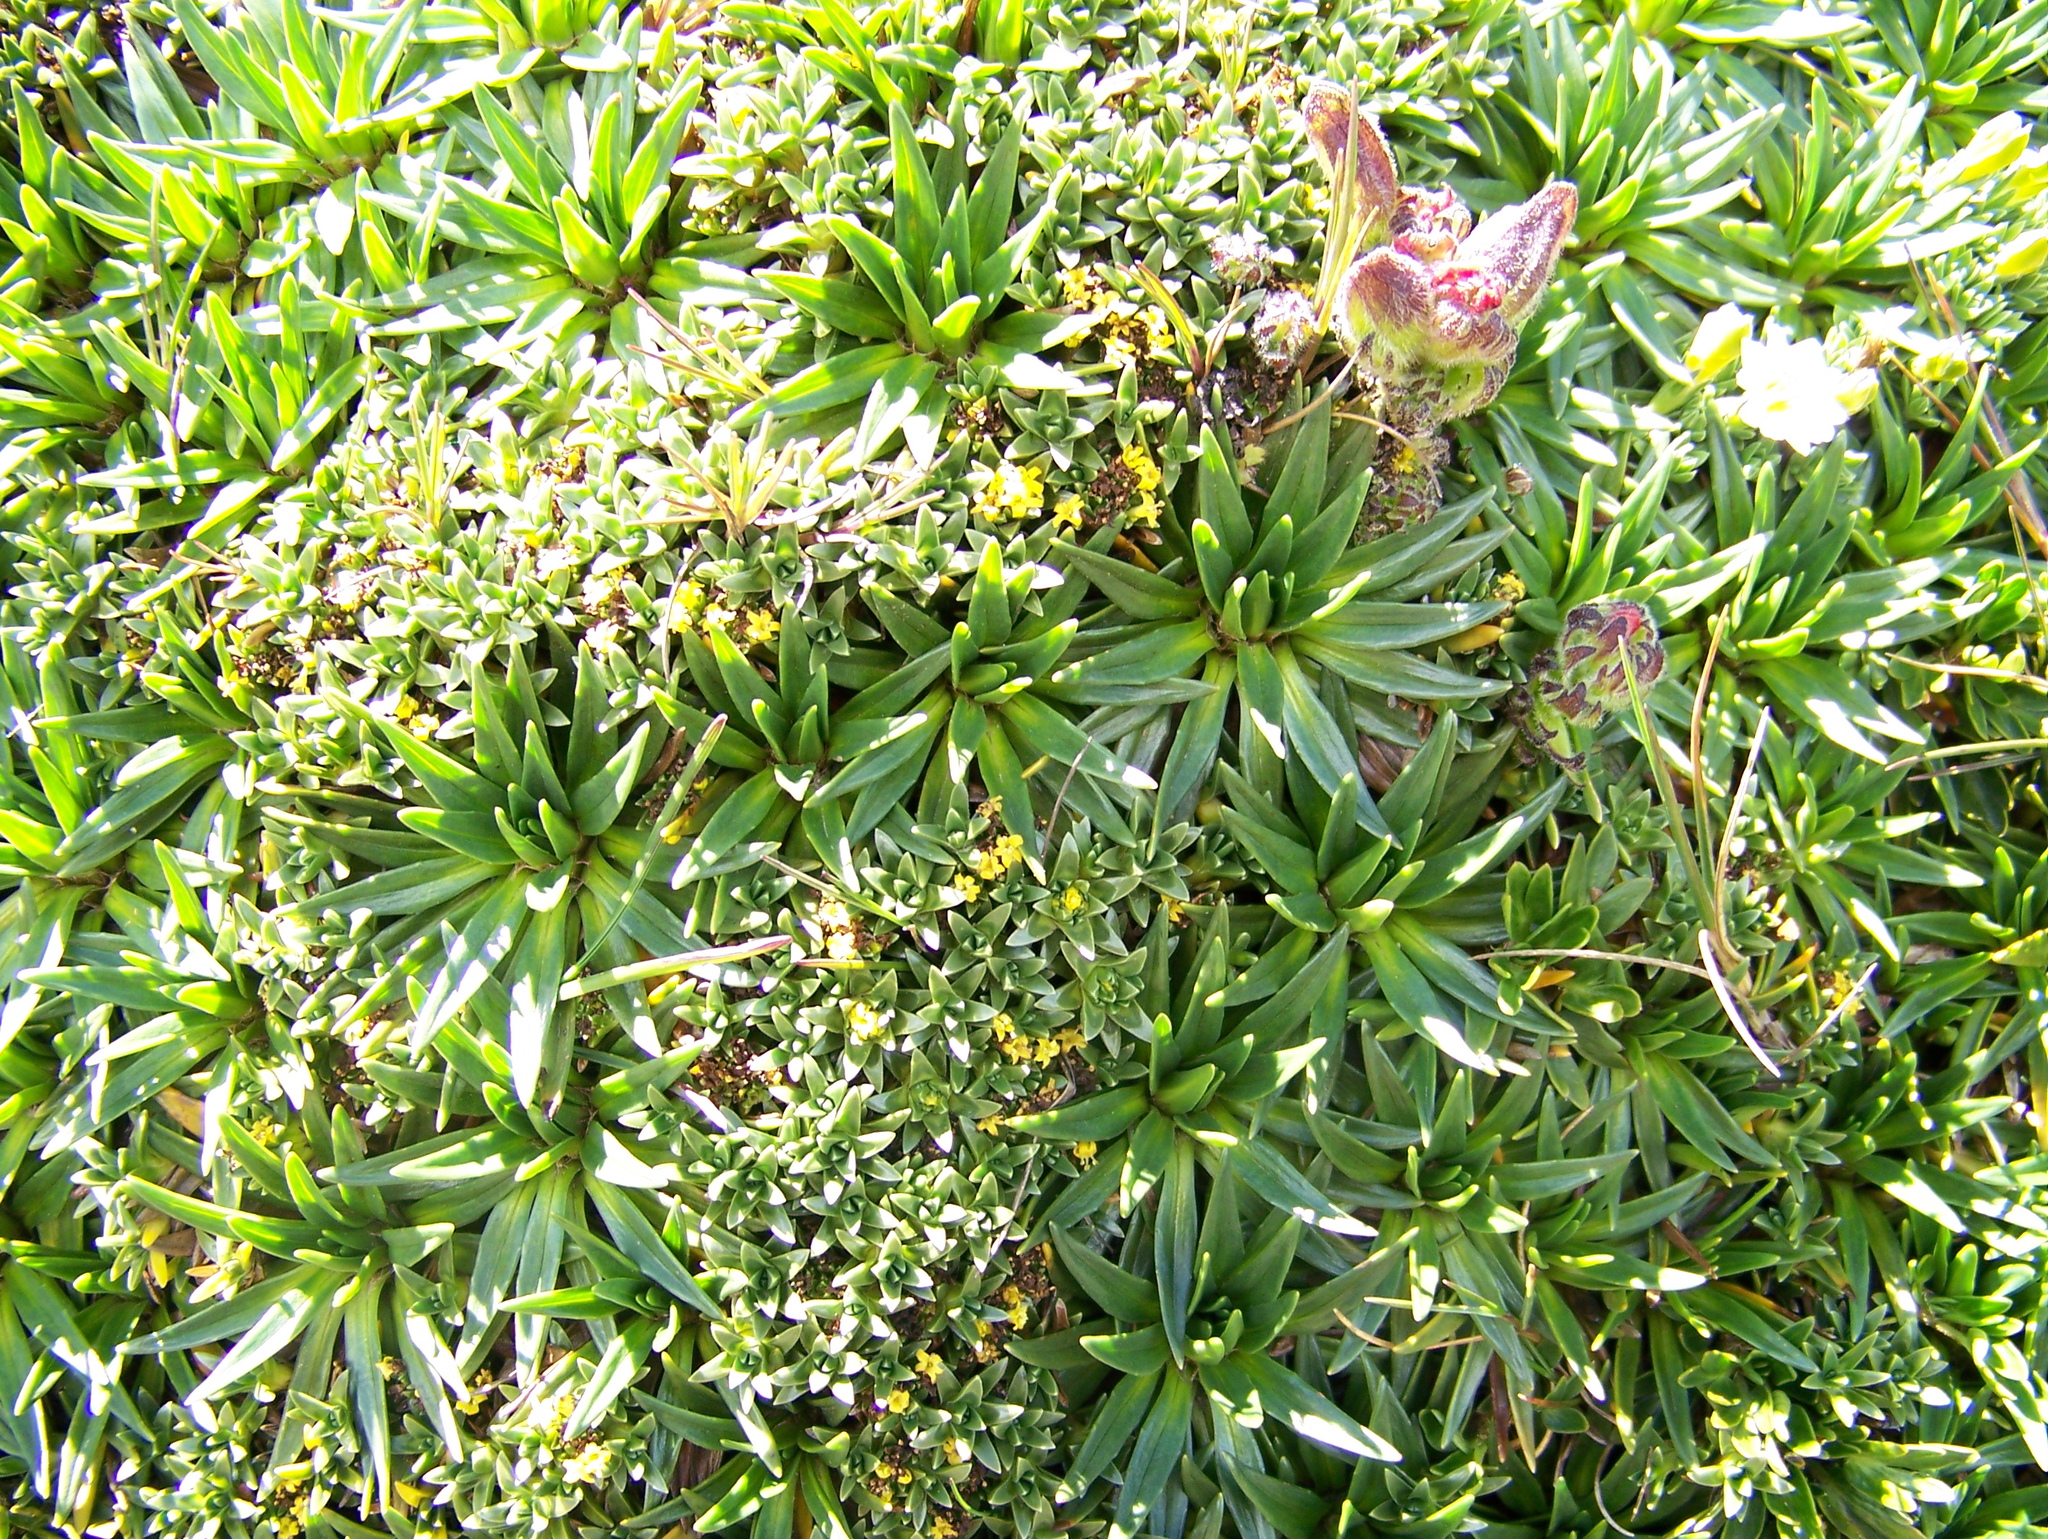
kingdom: Plantae
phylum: Tracheophyta
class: Magnoliopsida
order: Lamiales
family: Plantaginaceae
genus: Plantago
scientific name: Plantago rigida
